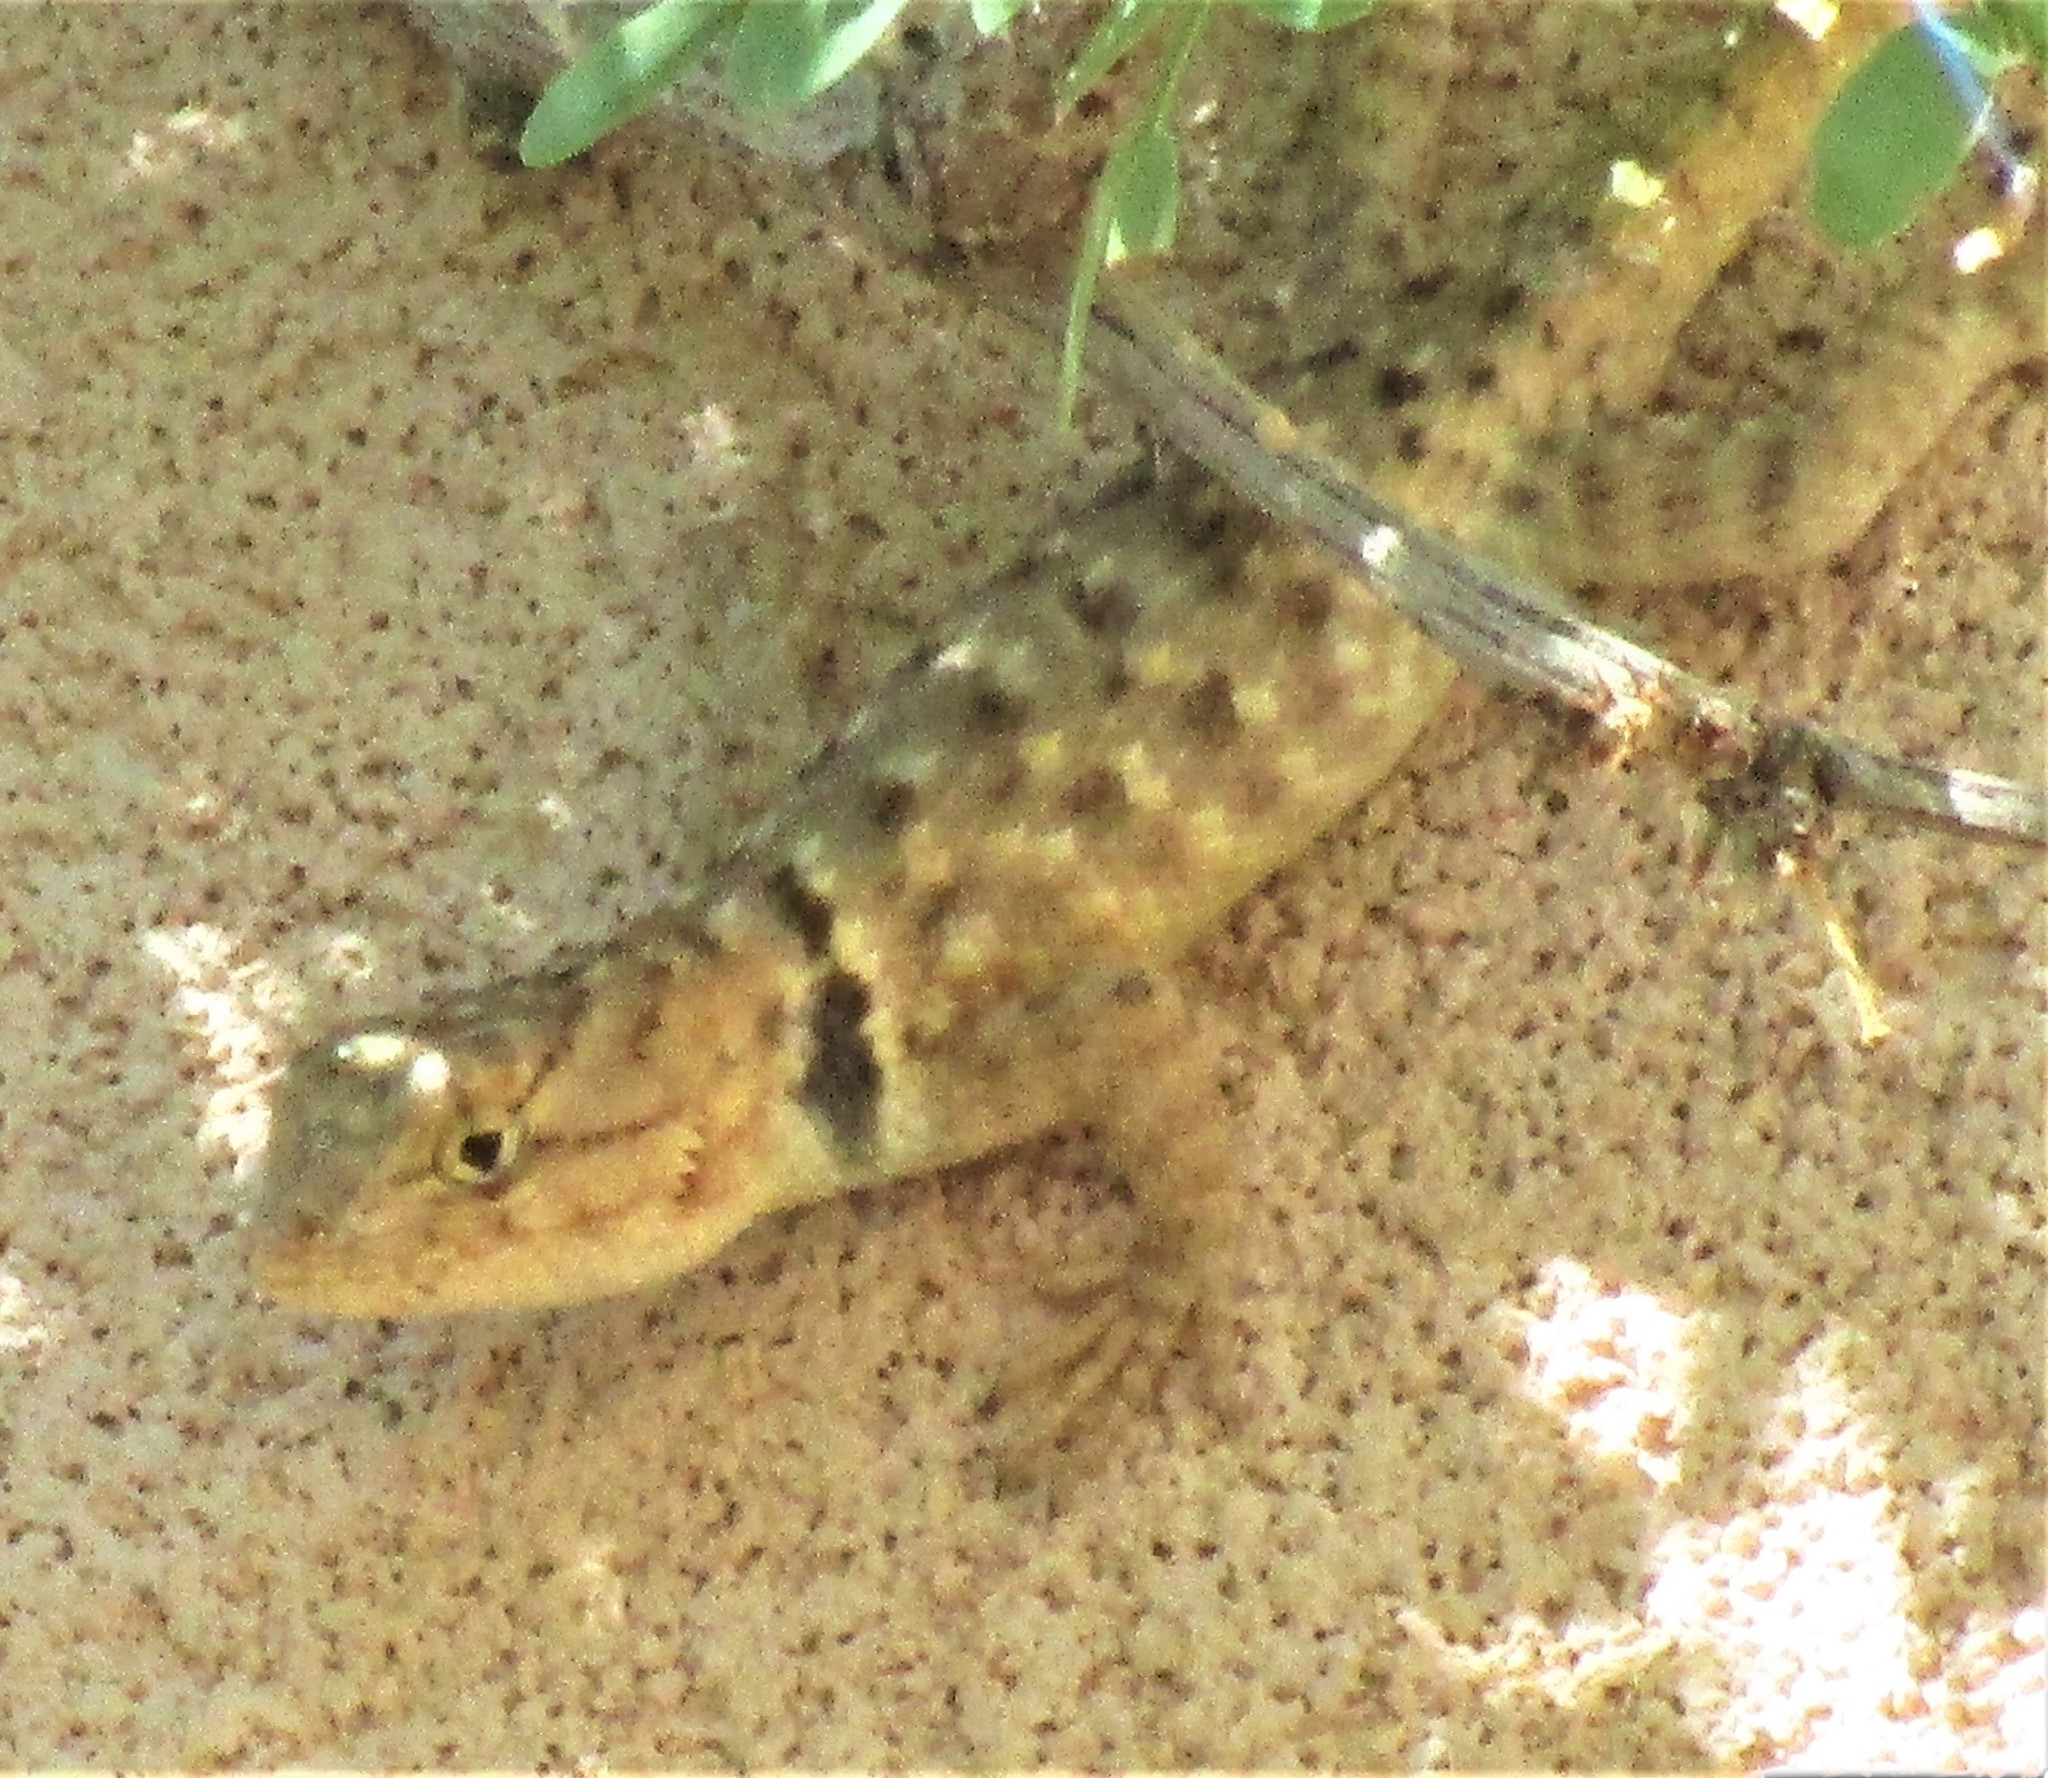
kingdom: Animalia
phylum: Chordata
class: Squamata
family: Phrynosomatidae
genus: Sceloporus
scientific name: Sceloporus bimaculosus
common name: Twin-spotted spiny lizard
